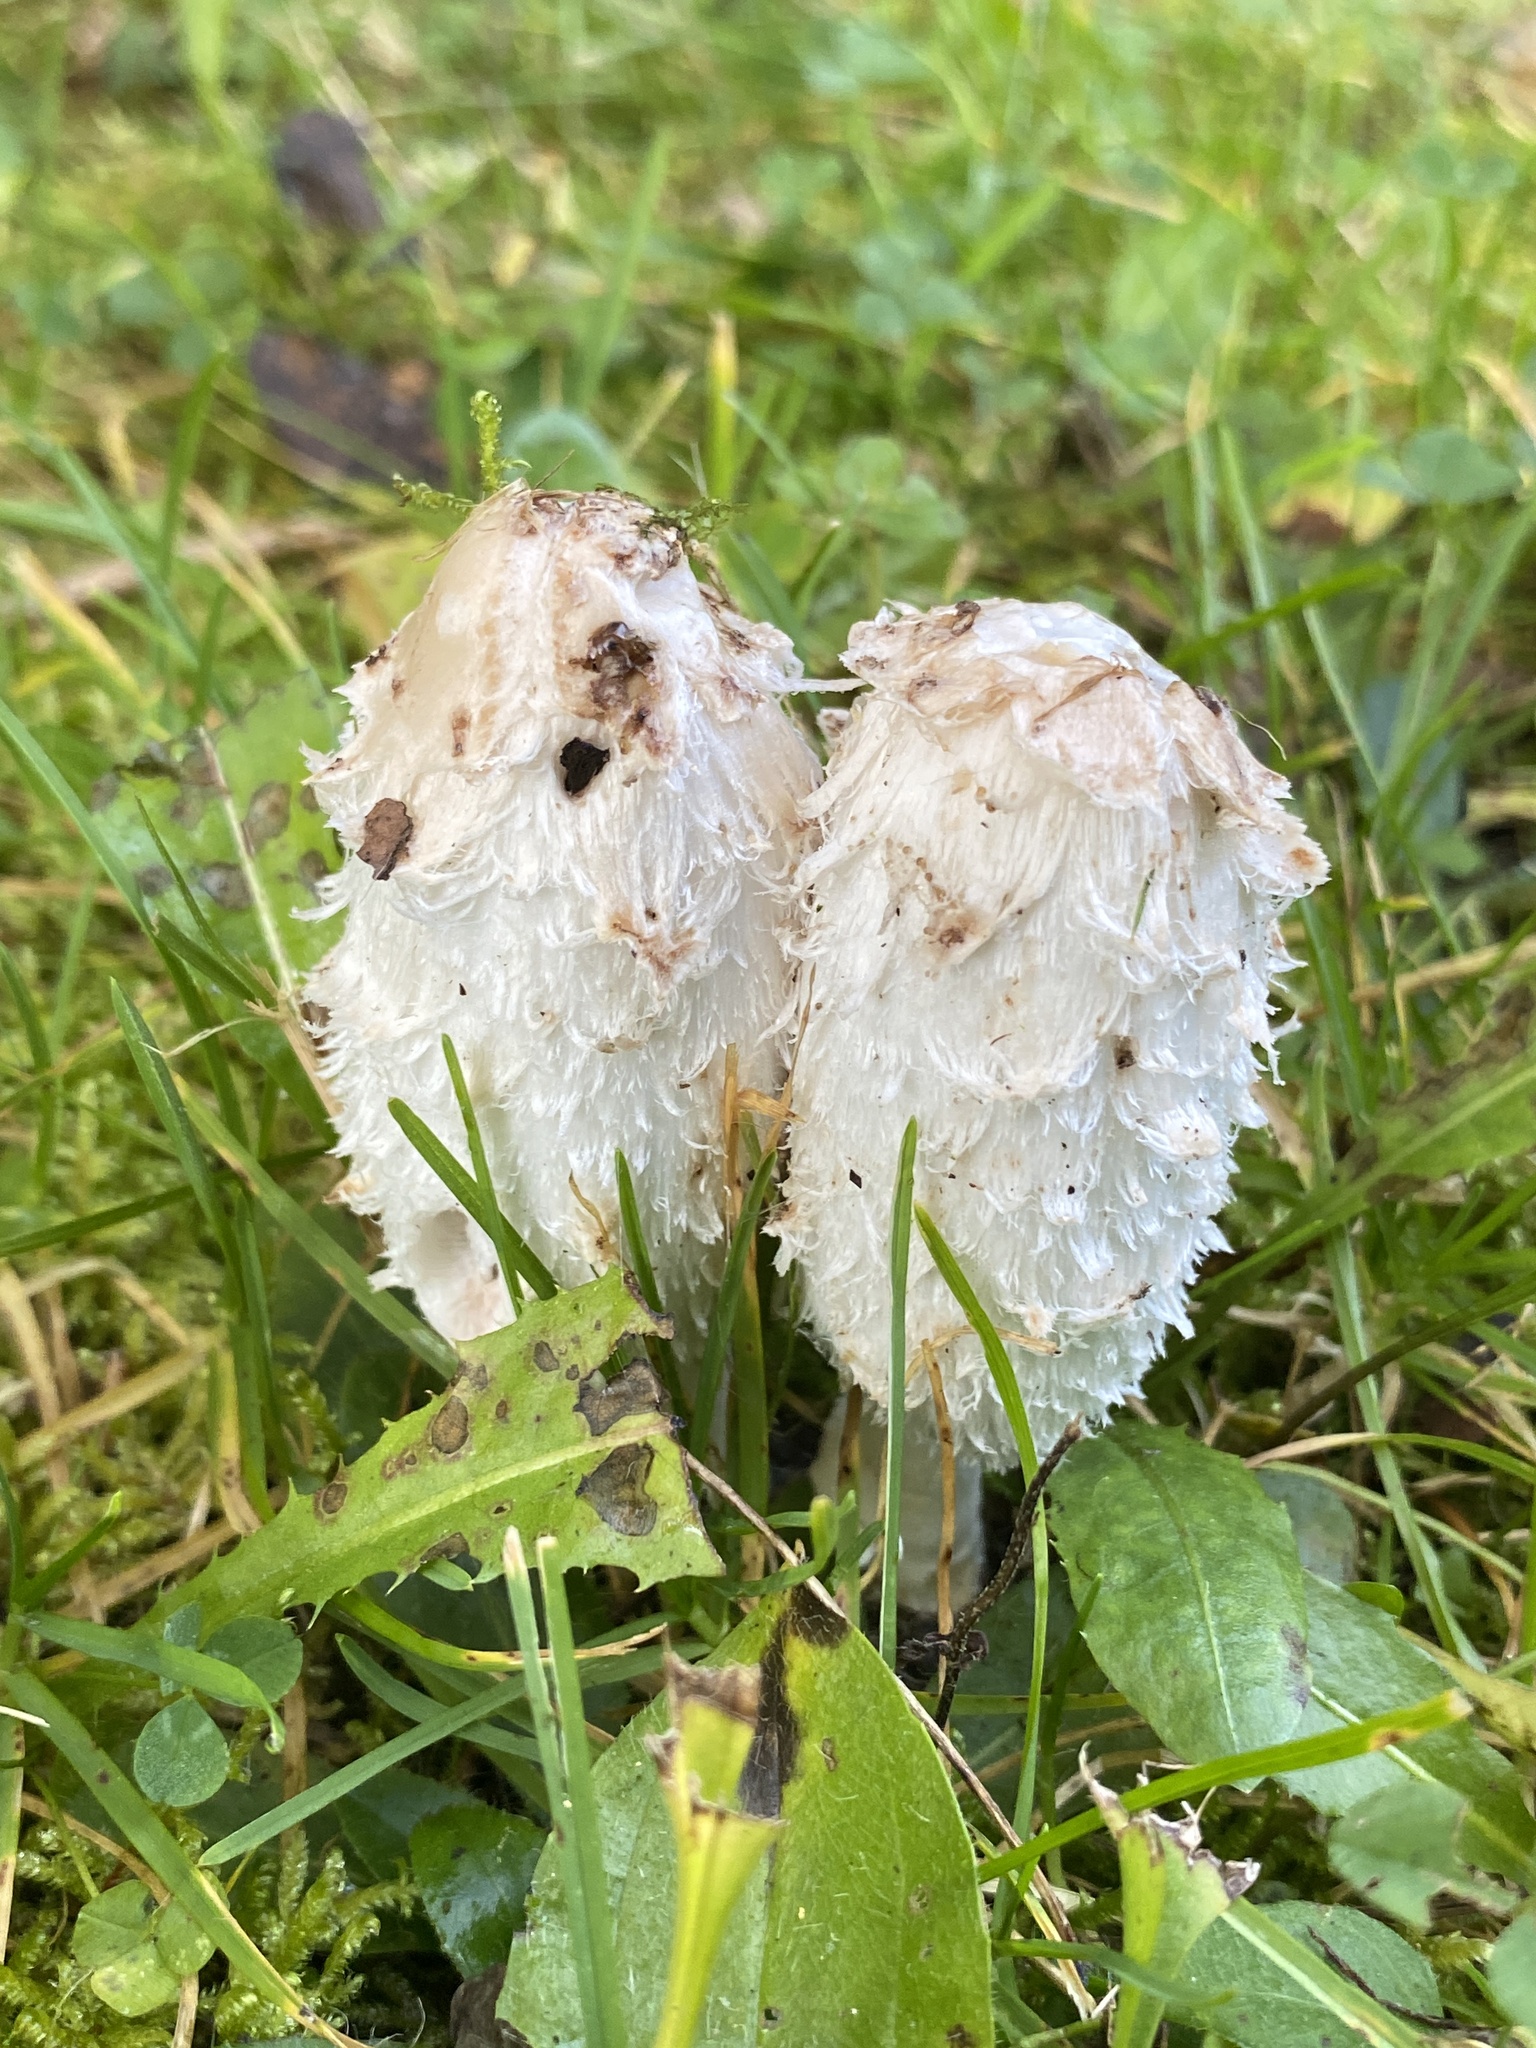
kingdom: Fungi
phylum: Basidiomycota
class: Agaricomycetes
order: Agaricales
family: Agaricaceae
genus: Coprinus
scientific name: Coprinus comatus
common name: Lawyer's wig
